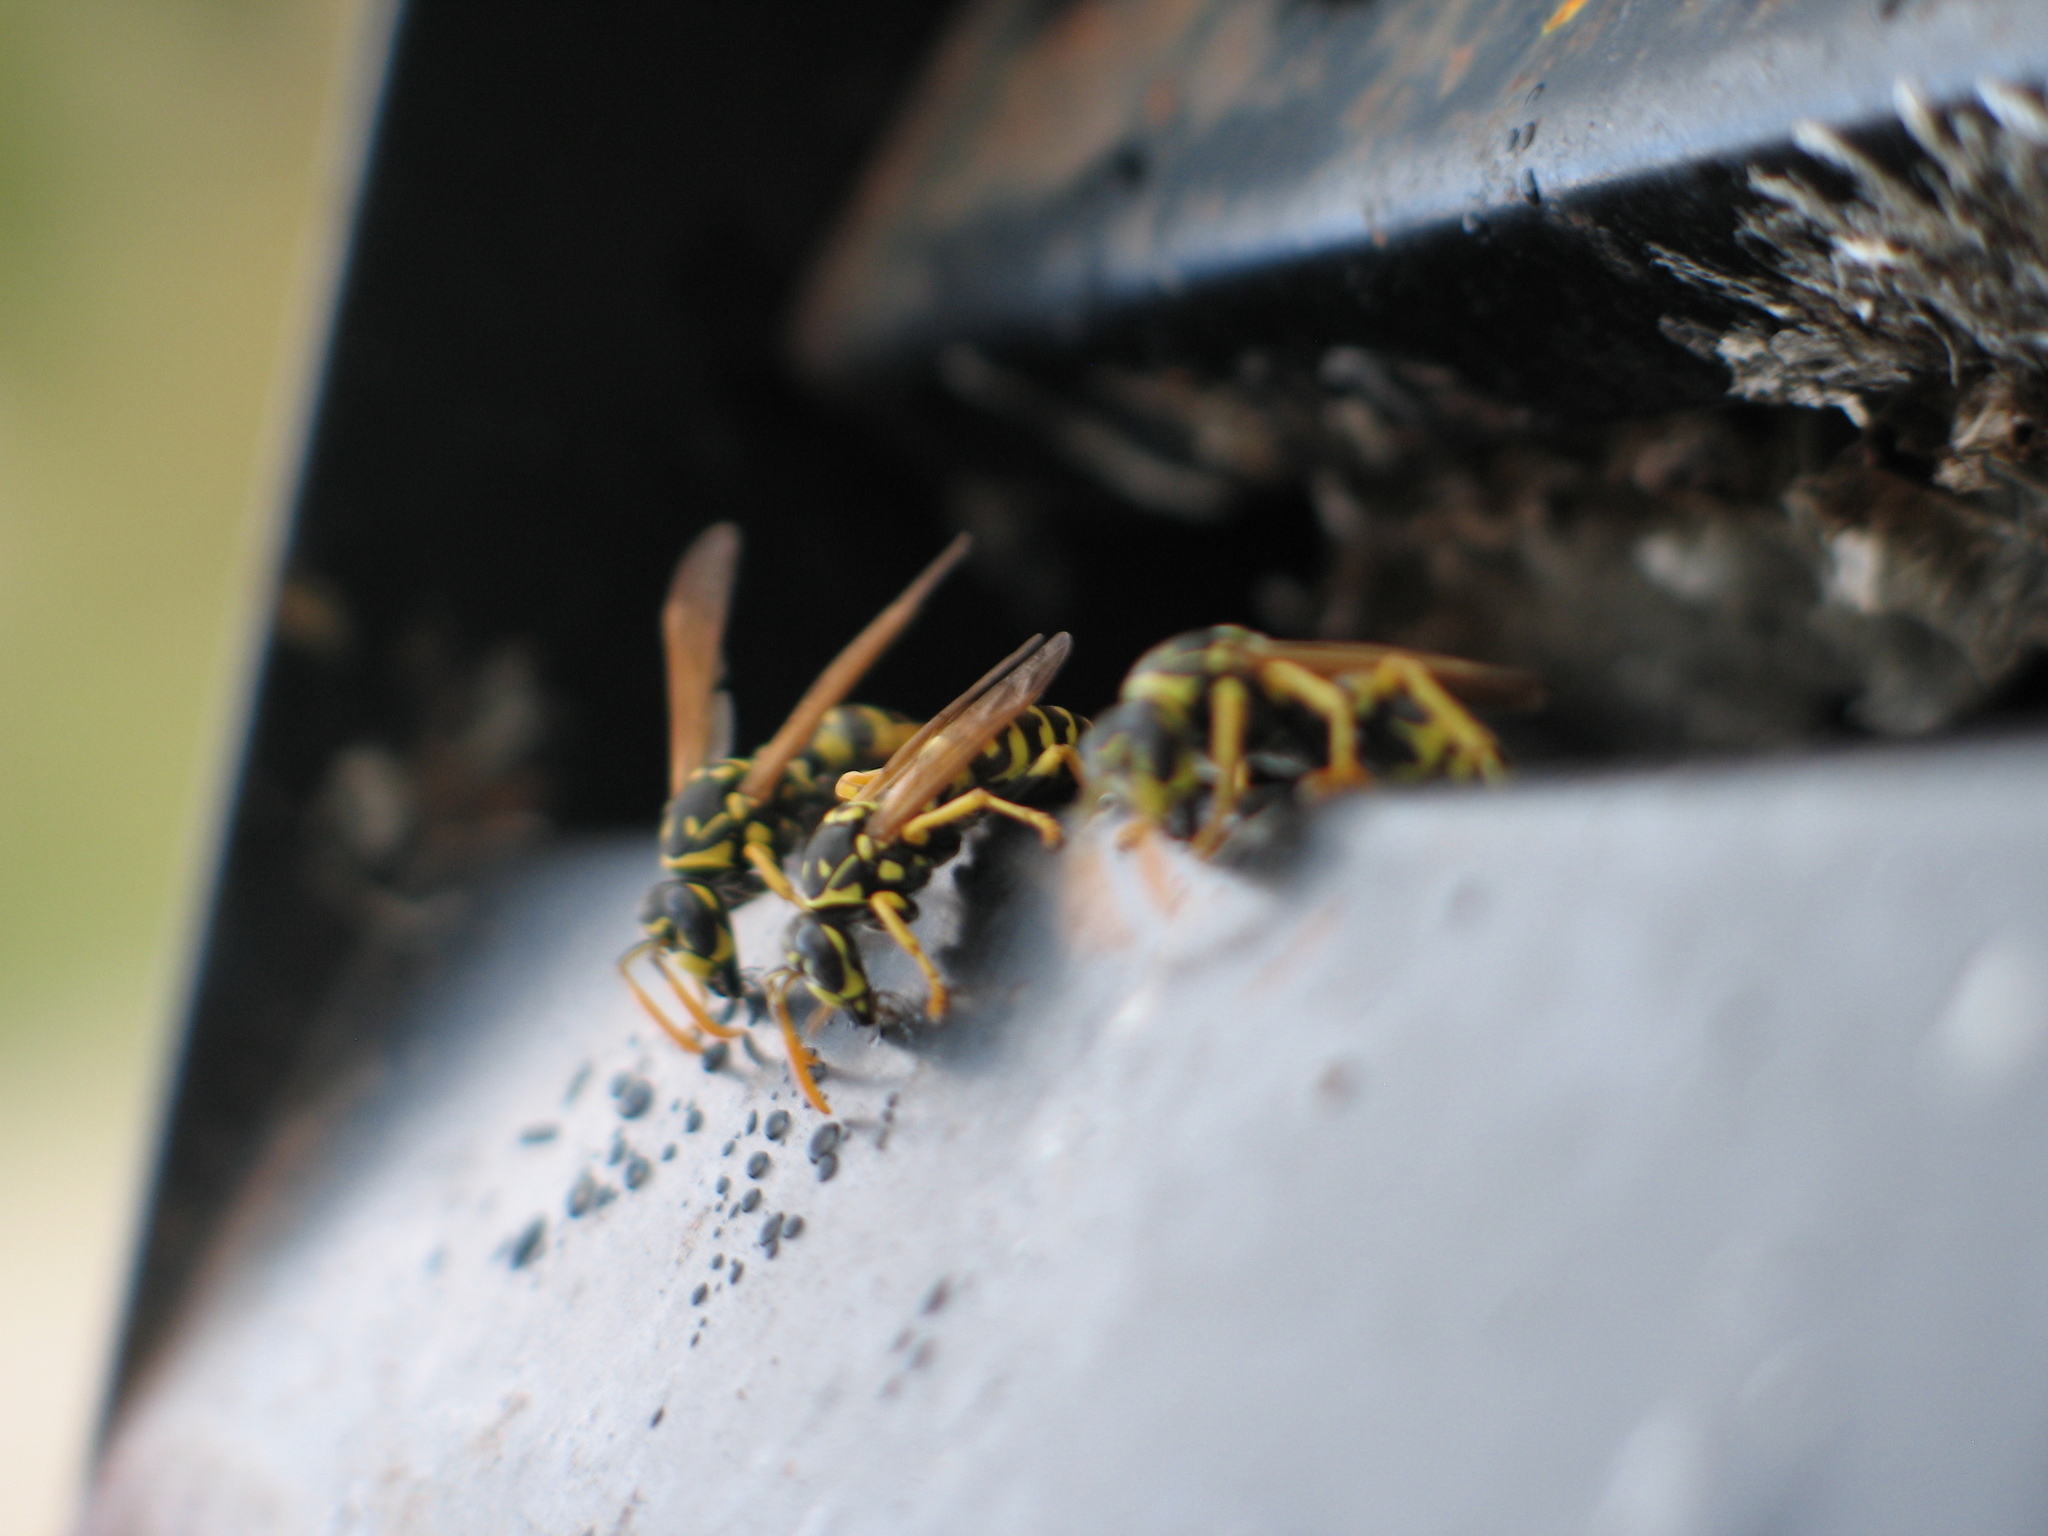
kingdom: Animalia
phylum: Arthropoda
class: Insecta
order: Hymenoptera
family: Eumenidae
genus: Polistes
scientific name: Polistes dominula
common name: Paper wasp
